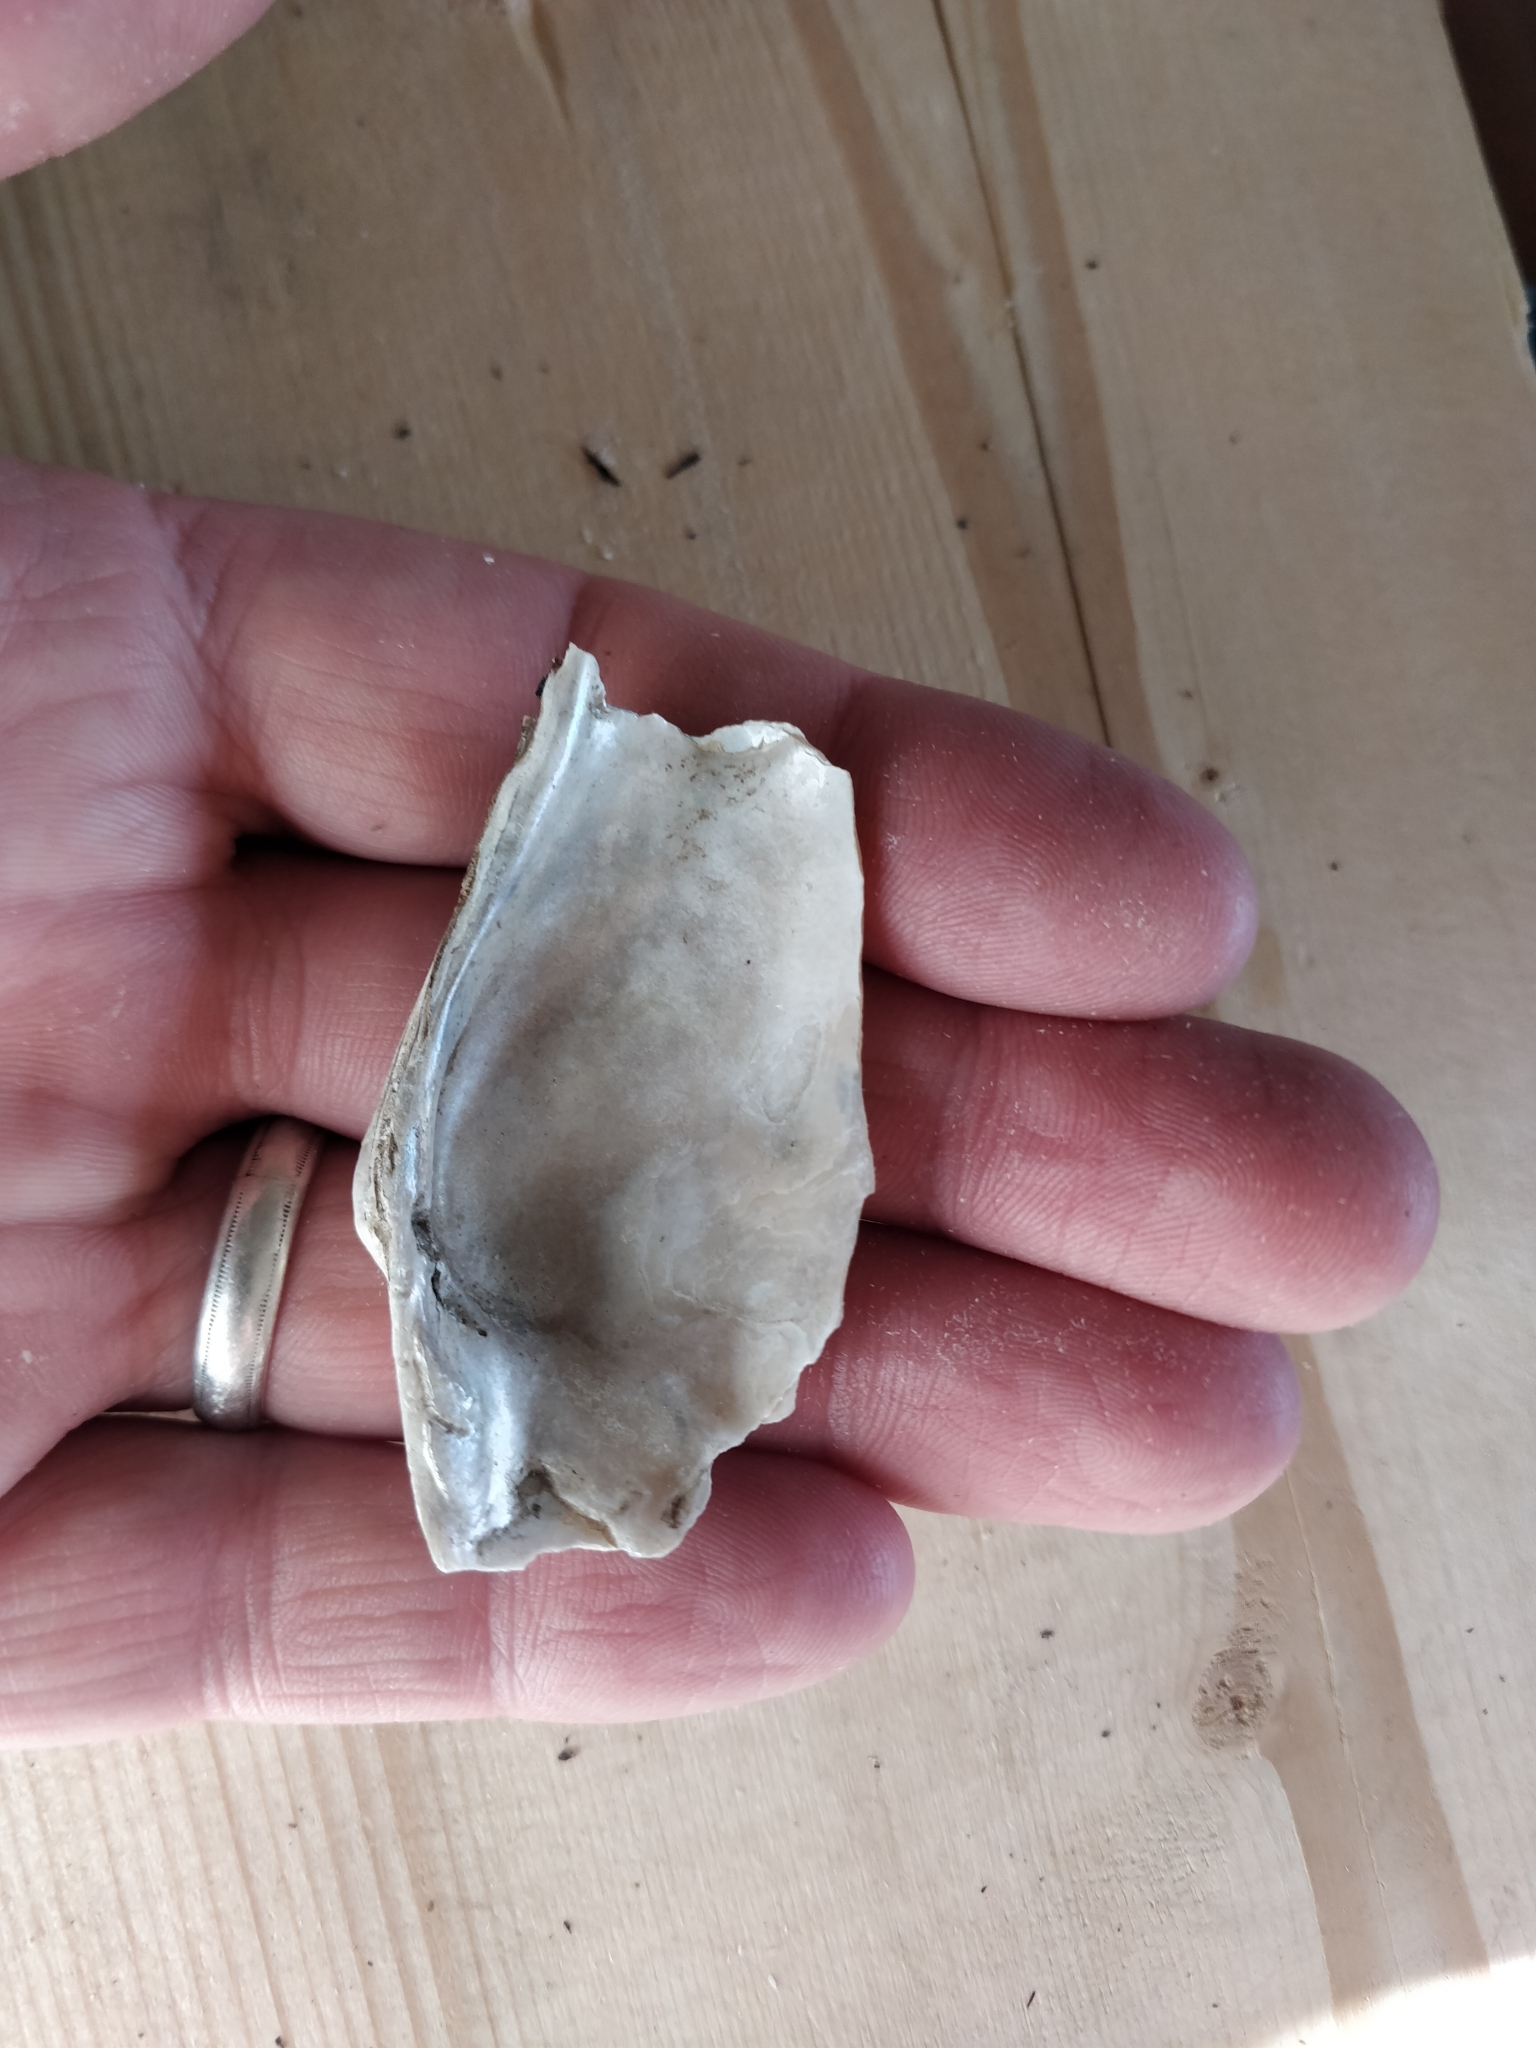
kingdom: Animalia
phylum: Mollusca
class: Bivalvia
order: Unionida
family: Unionidae
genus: Strophitus
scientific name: Strophitus undulatus
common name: Creeper
